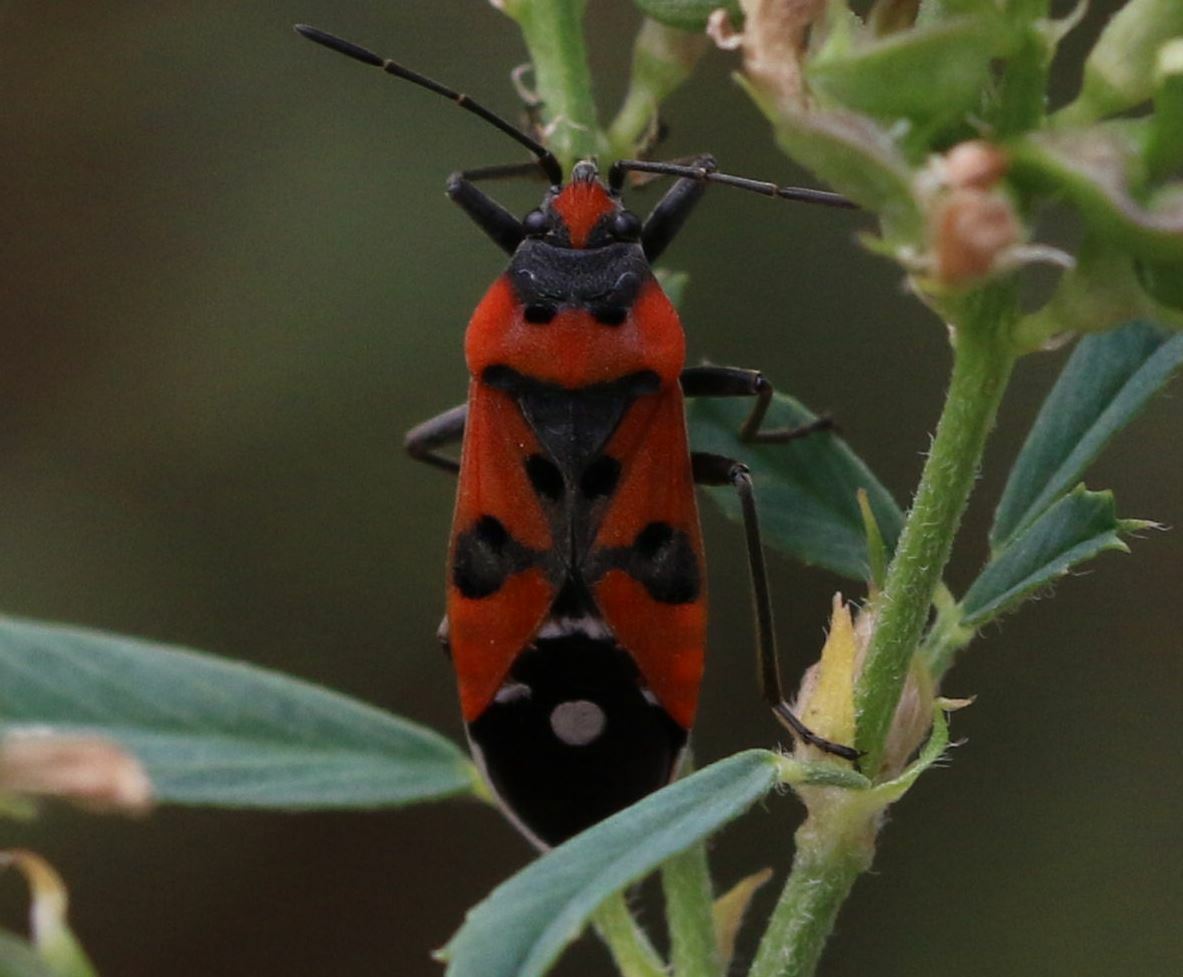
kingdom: Animalia
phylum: Arthropoda
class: Insecta
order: Hemiptera
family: Lygaeidae
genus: Lygaeus
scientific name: Lygaeus equestris
